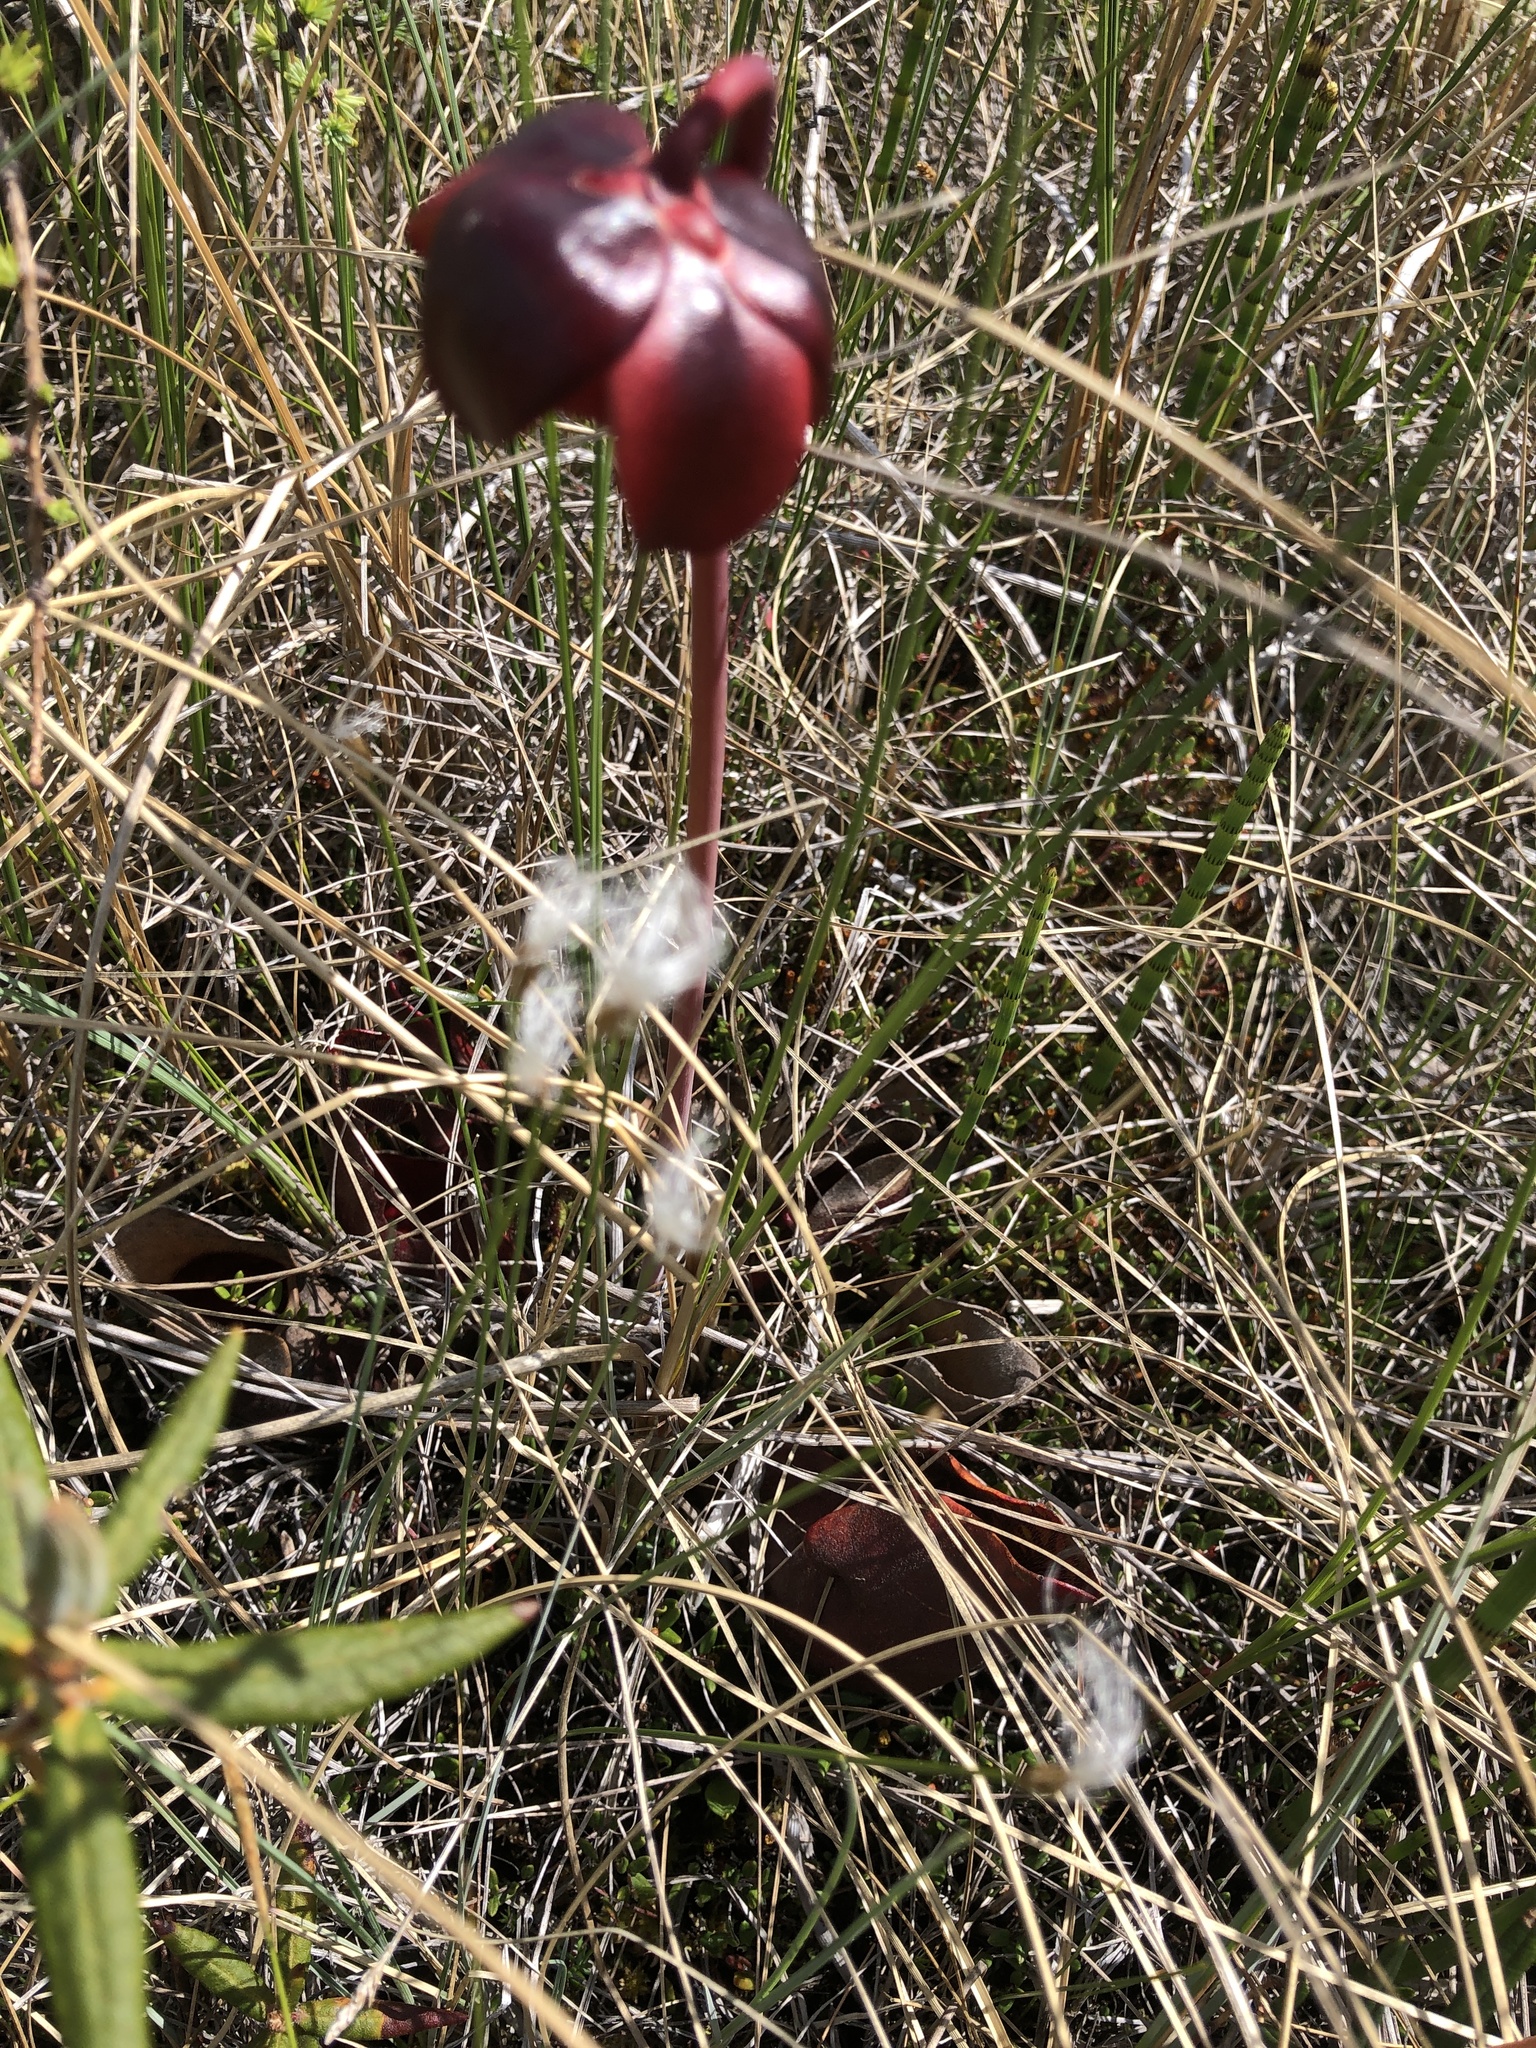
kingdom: Plantae
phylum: Tracheophyta
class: Magnoliopsida
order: Ericales
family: Sarraceniaceae
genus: Sarracenia
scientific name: Sarracenia purpurea
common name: Pitcherplant
